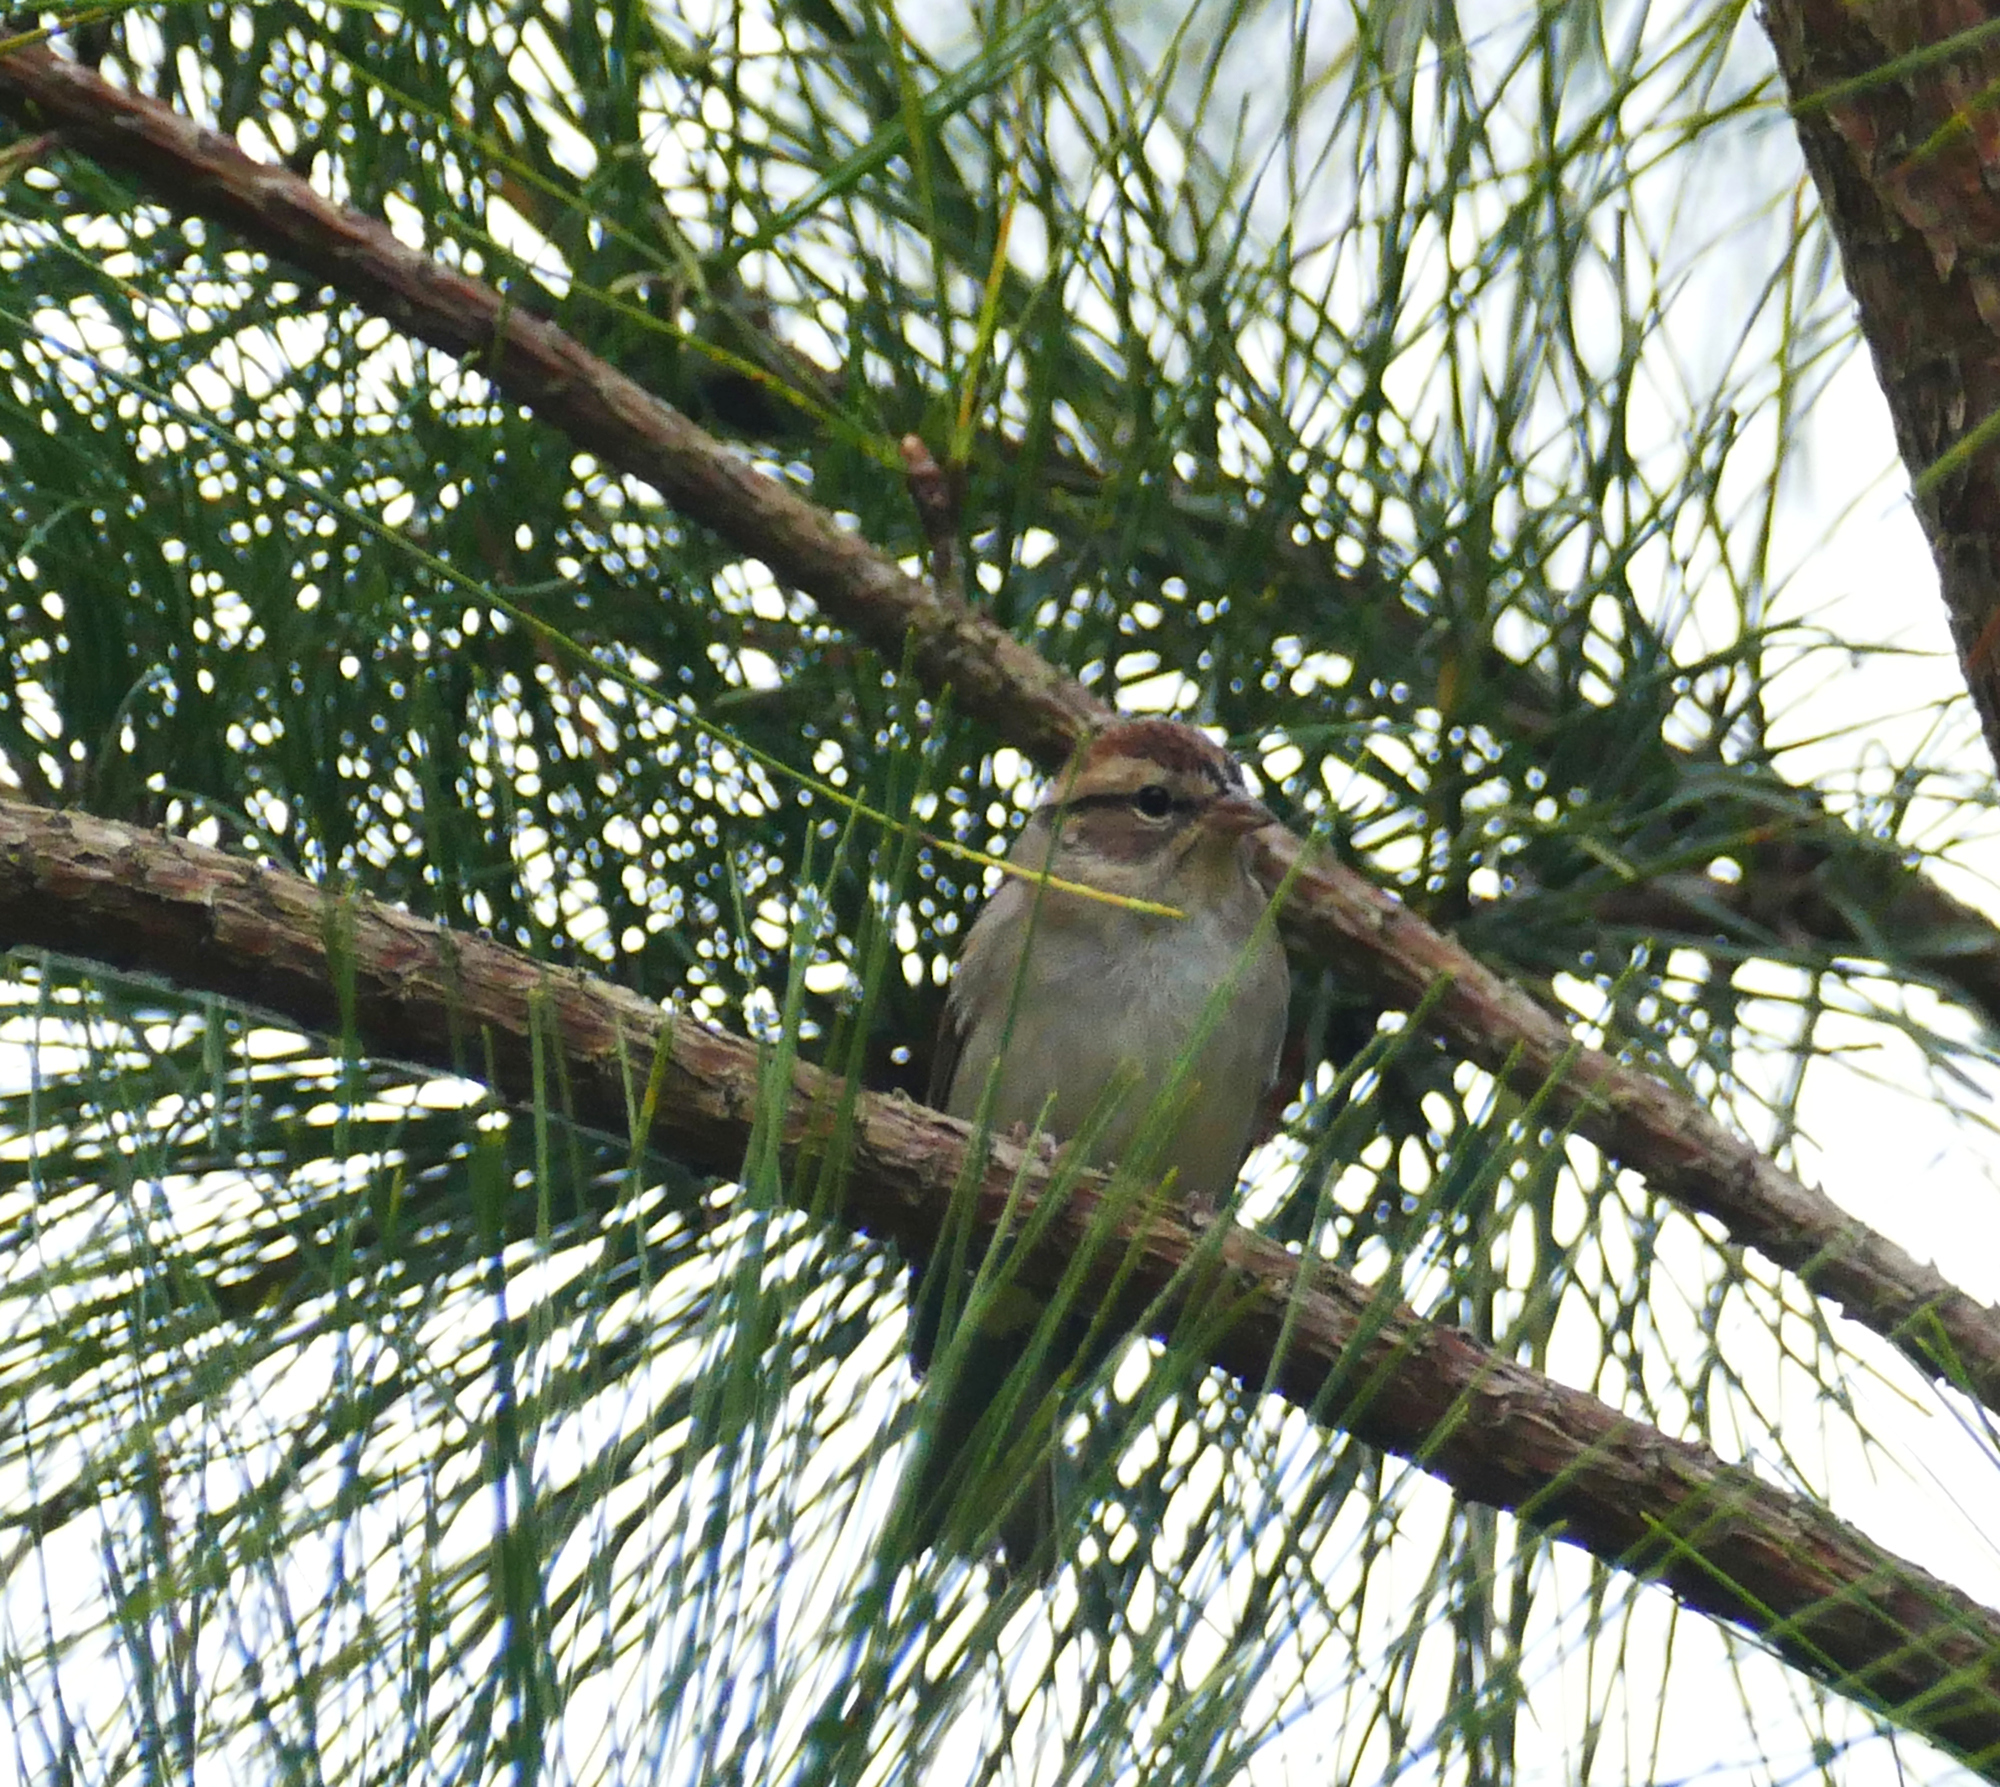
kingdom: Animalia
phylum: Chordata
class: Aves
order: Passeriformes
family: Passerellidae
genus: Spizella
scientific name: Spizella passerina
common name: Chipping sparrow
